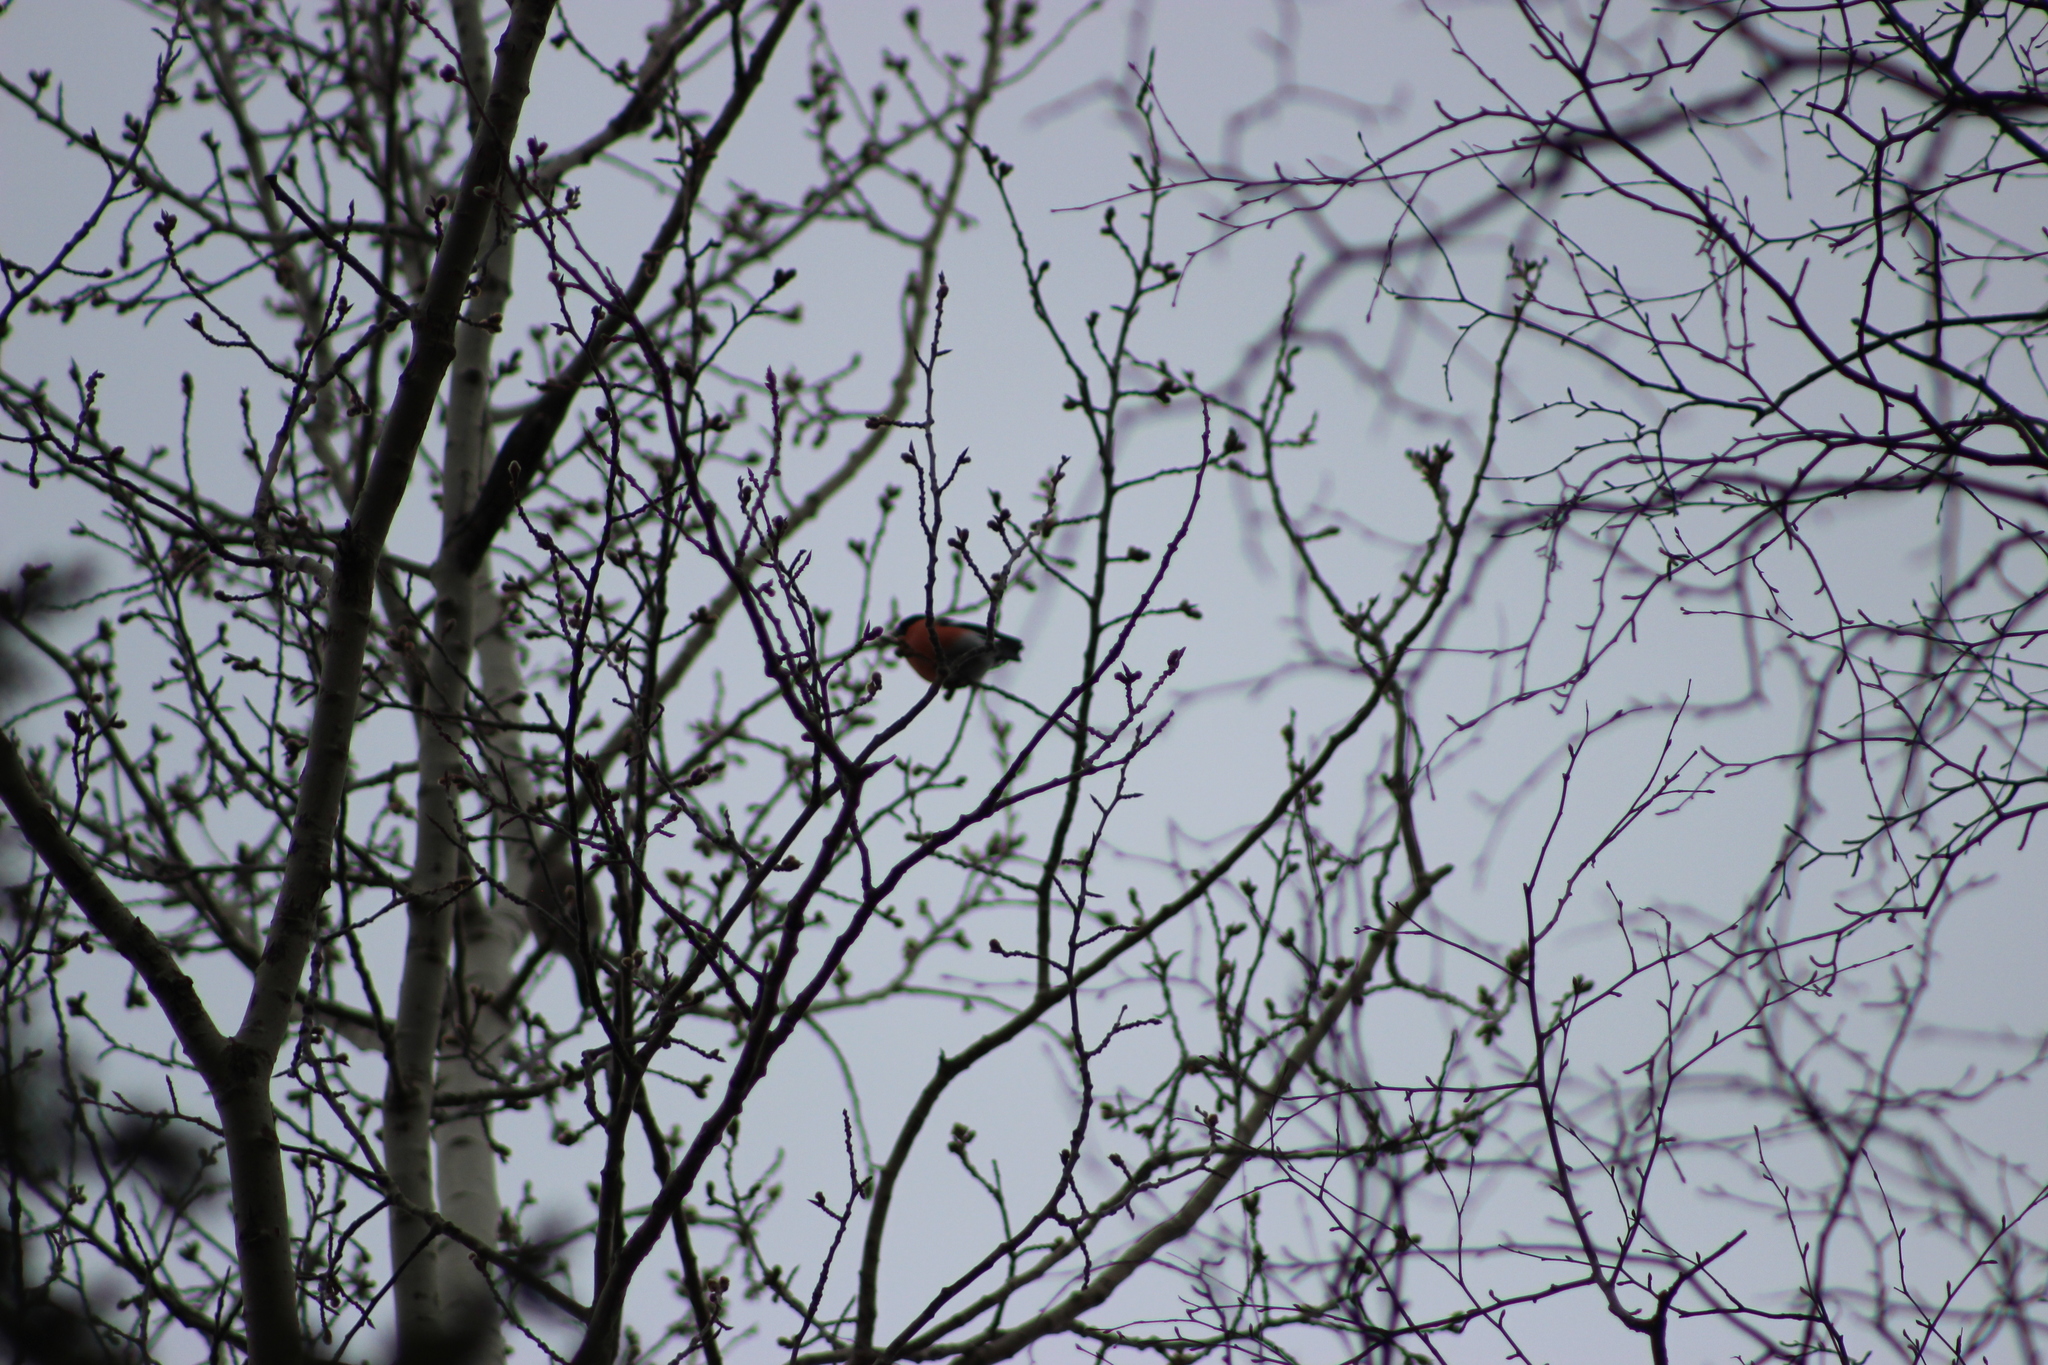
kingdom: Plantae
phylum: Tracheophyta
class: Magnoliopsida
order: Malpighiales
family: Salicaceae
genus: Populus
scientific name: Populus tremula
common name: European aspen
